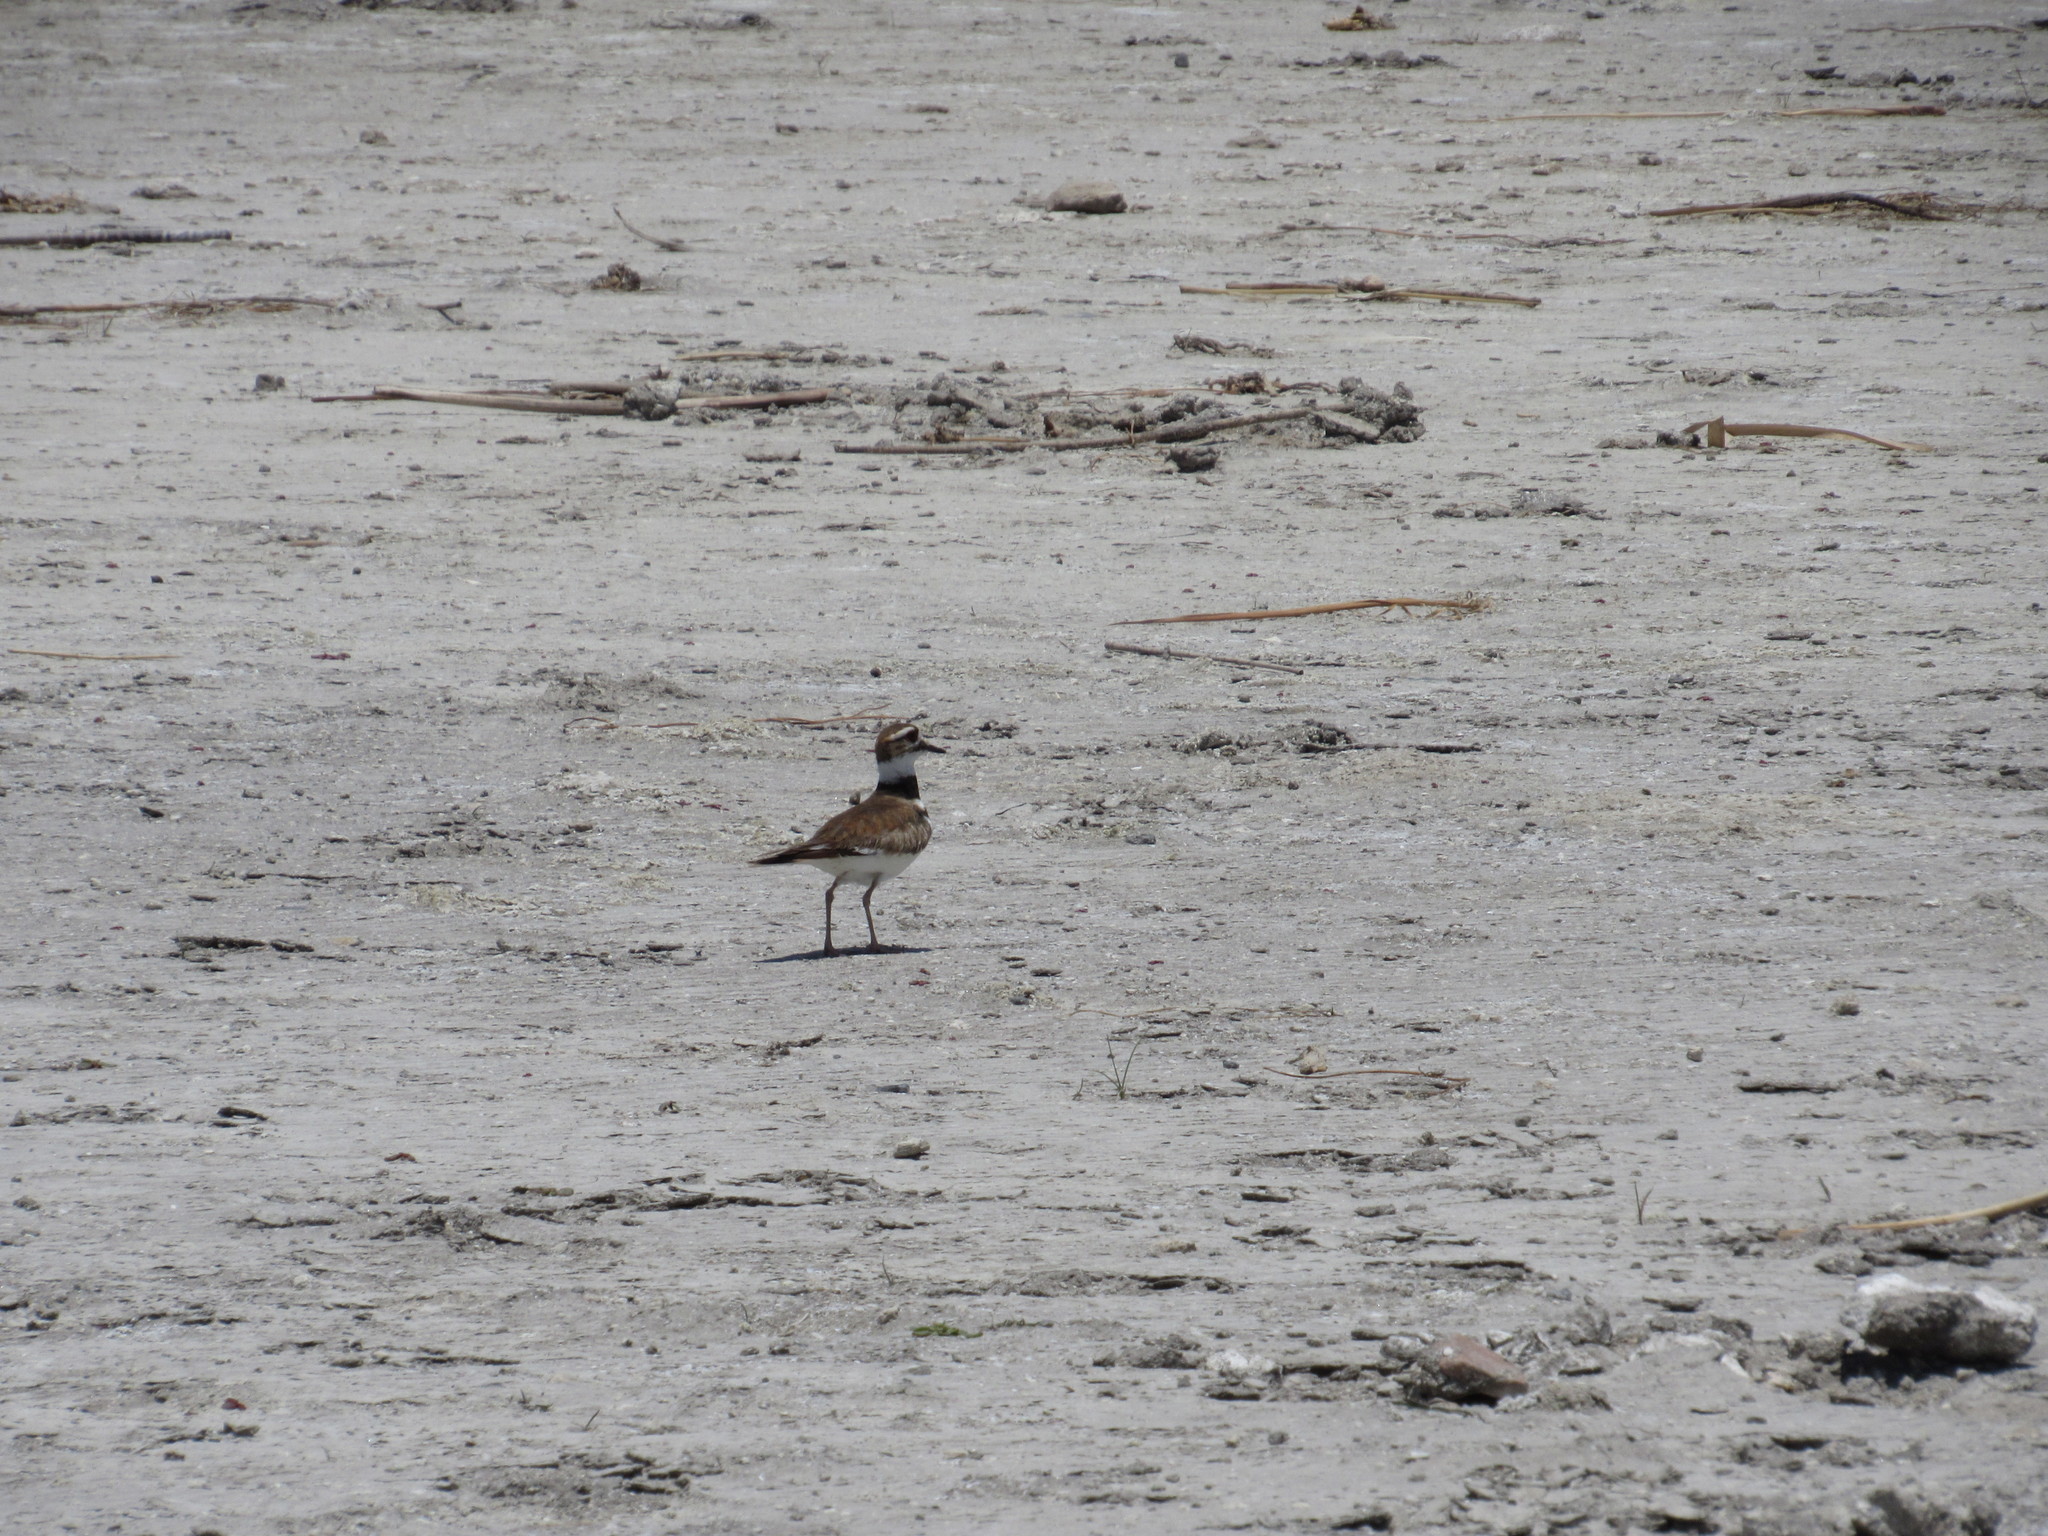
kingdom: Animalia
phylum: Chordata
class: Aves
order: Charadriiformes
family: Charadriidae
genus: Charadrius
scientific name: Charadrius vociferus
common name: Killdeer
